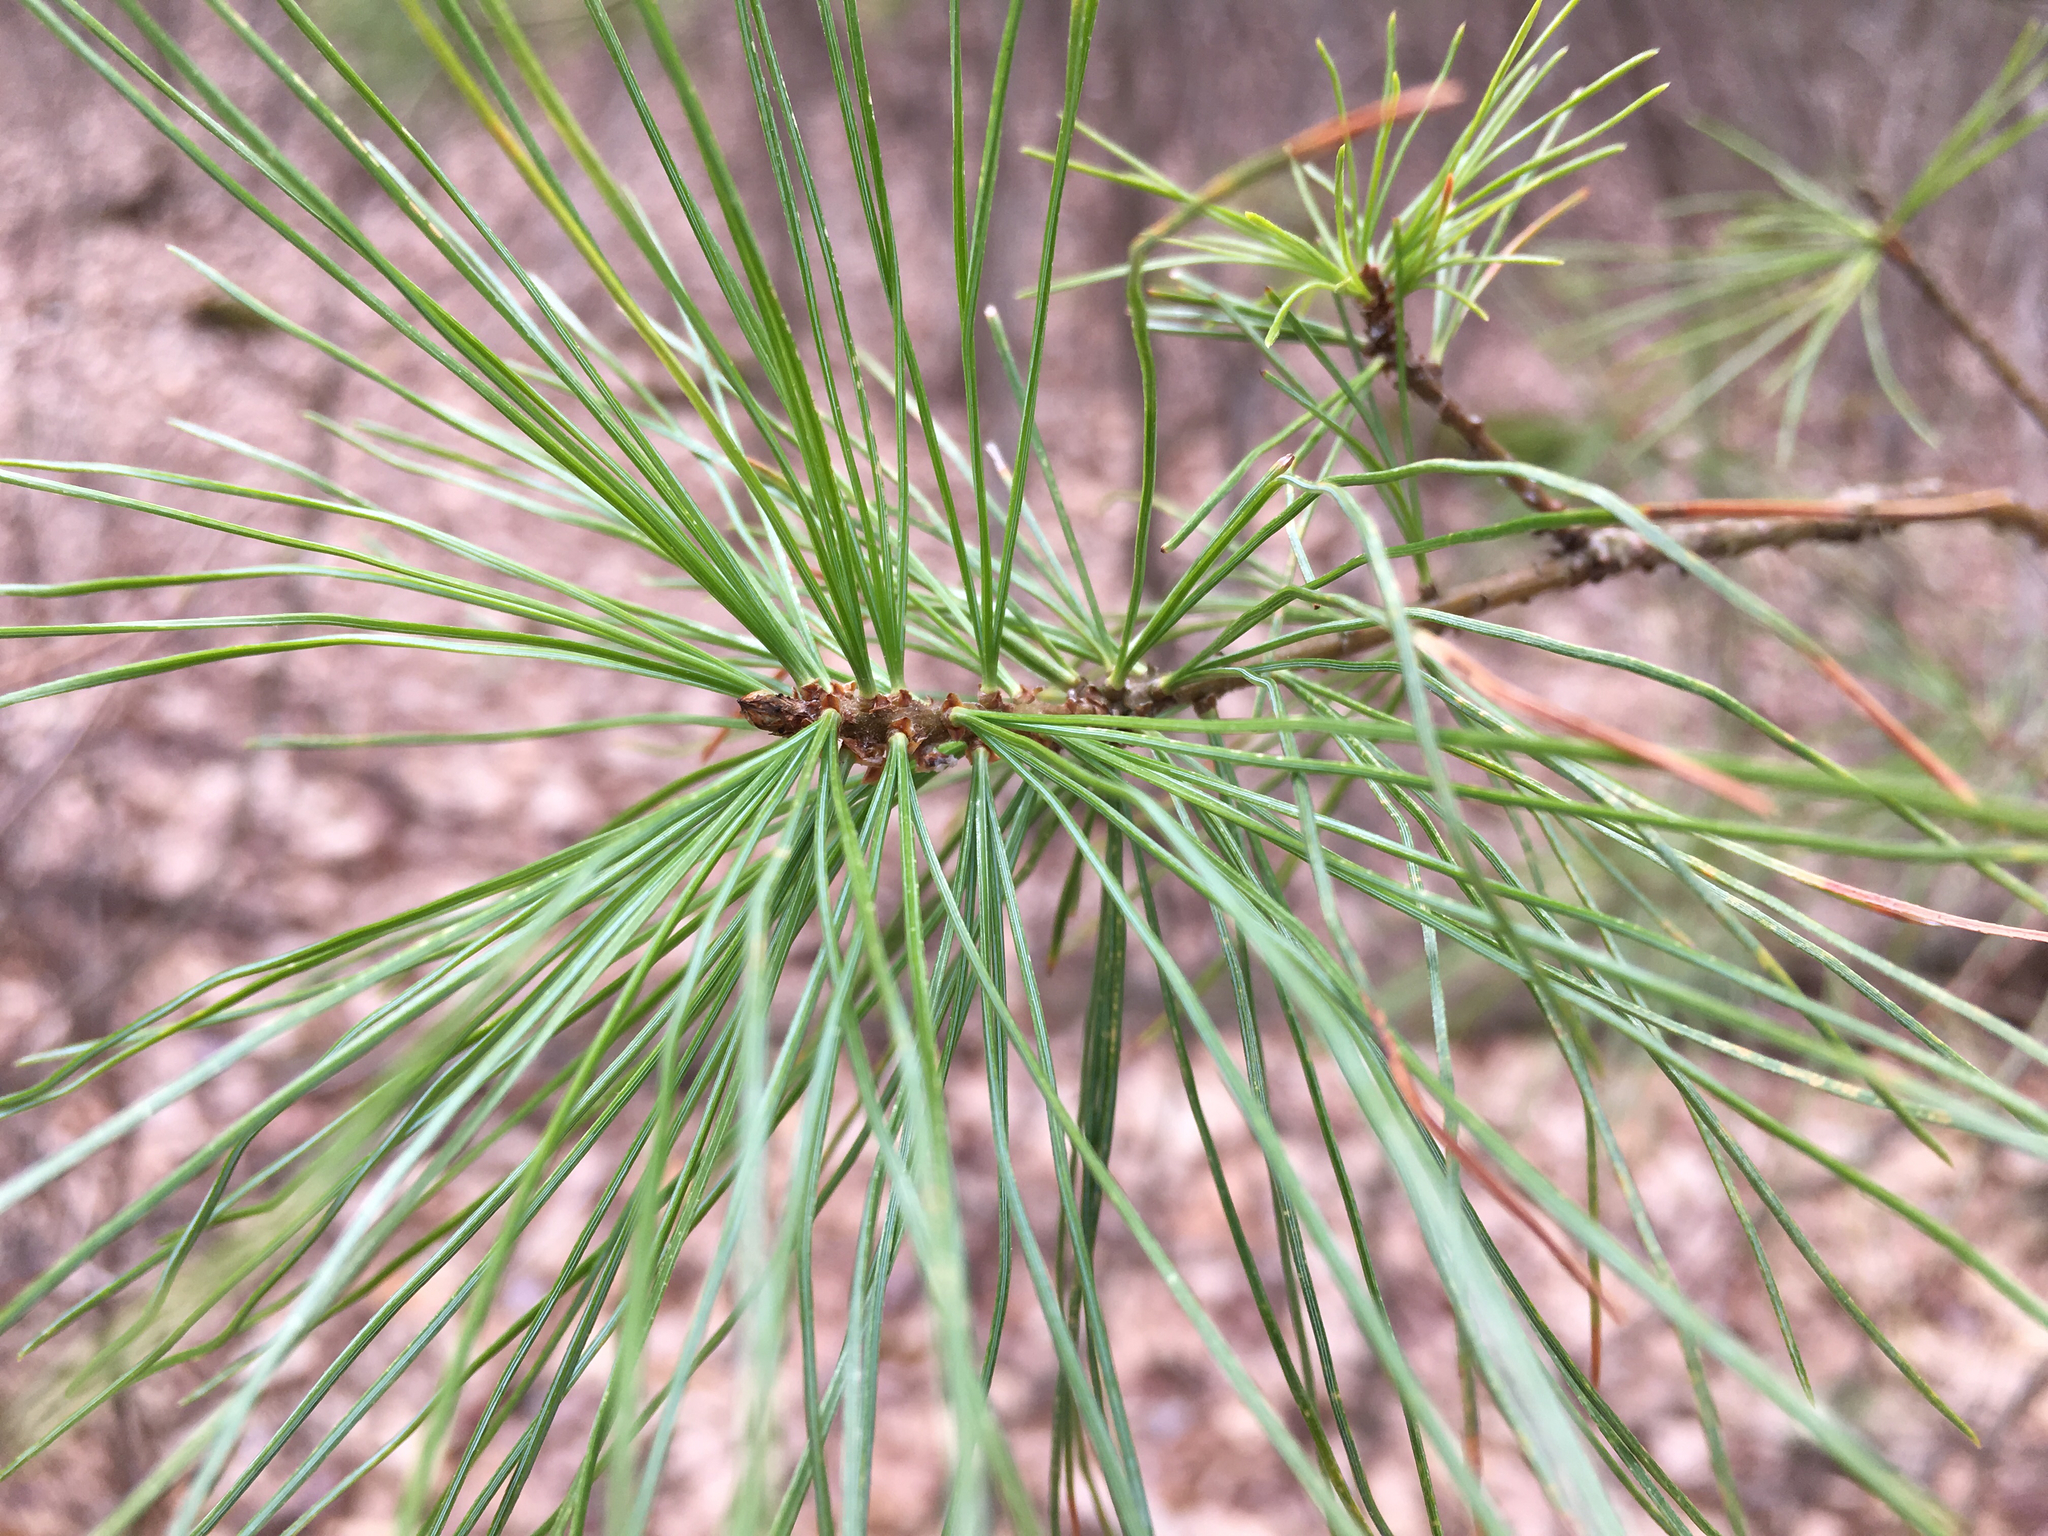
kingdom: Plantae
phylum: Tracheophyta
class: Pinopsida
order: Pinales
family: Pinaceae
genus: Pinus
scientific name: Pinus strobus
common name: Weymouth pine
